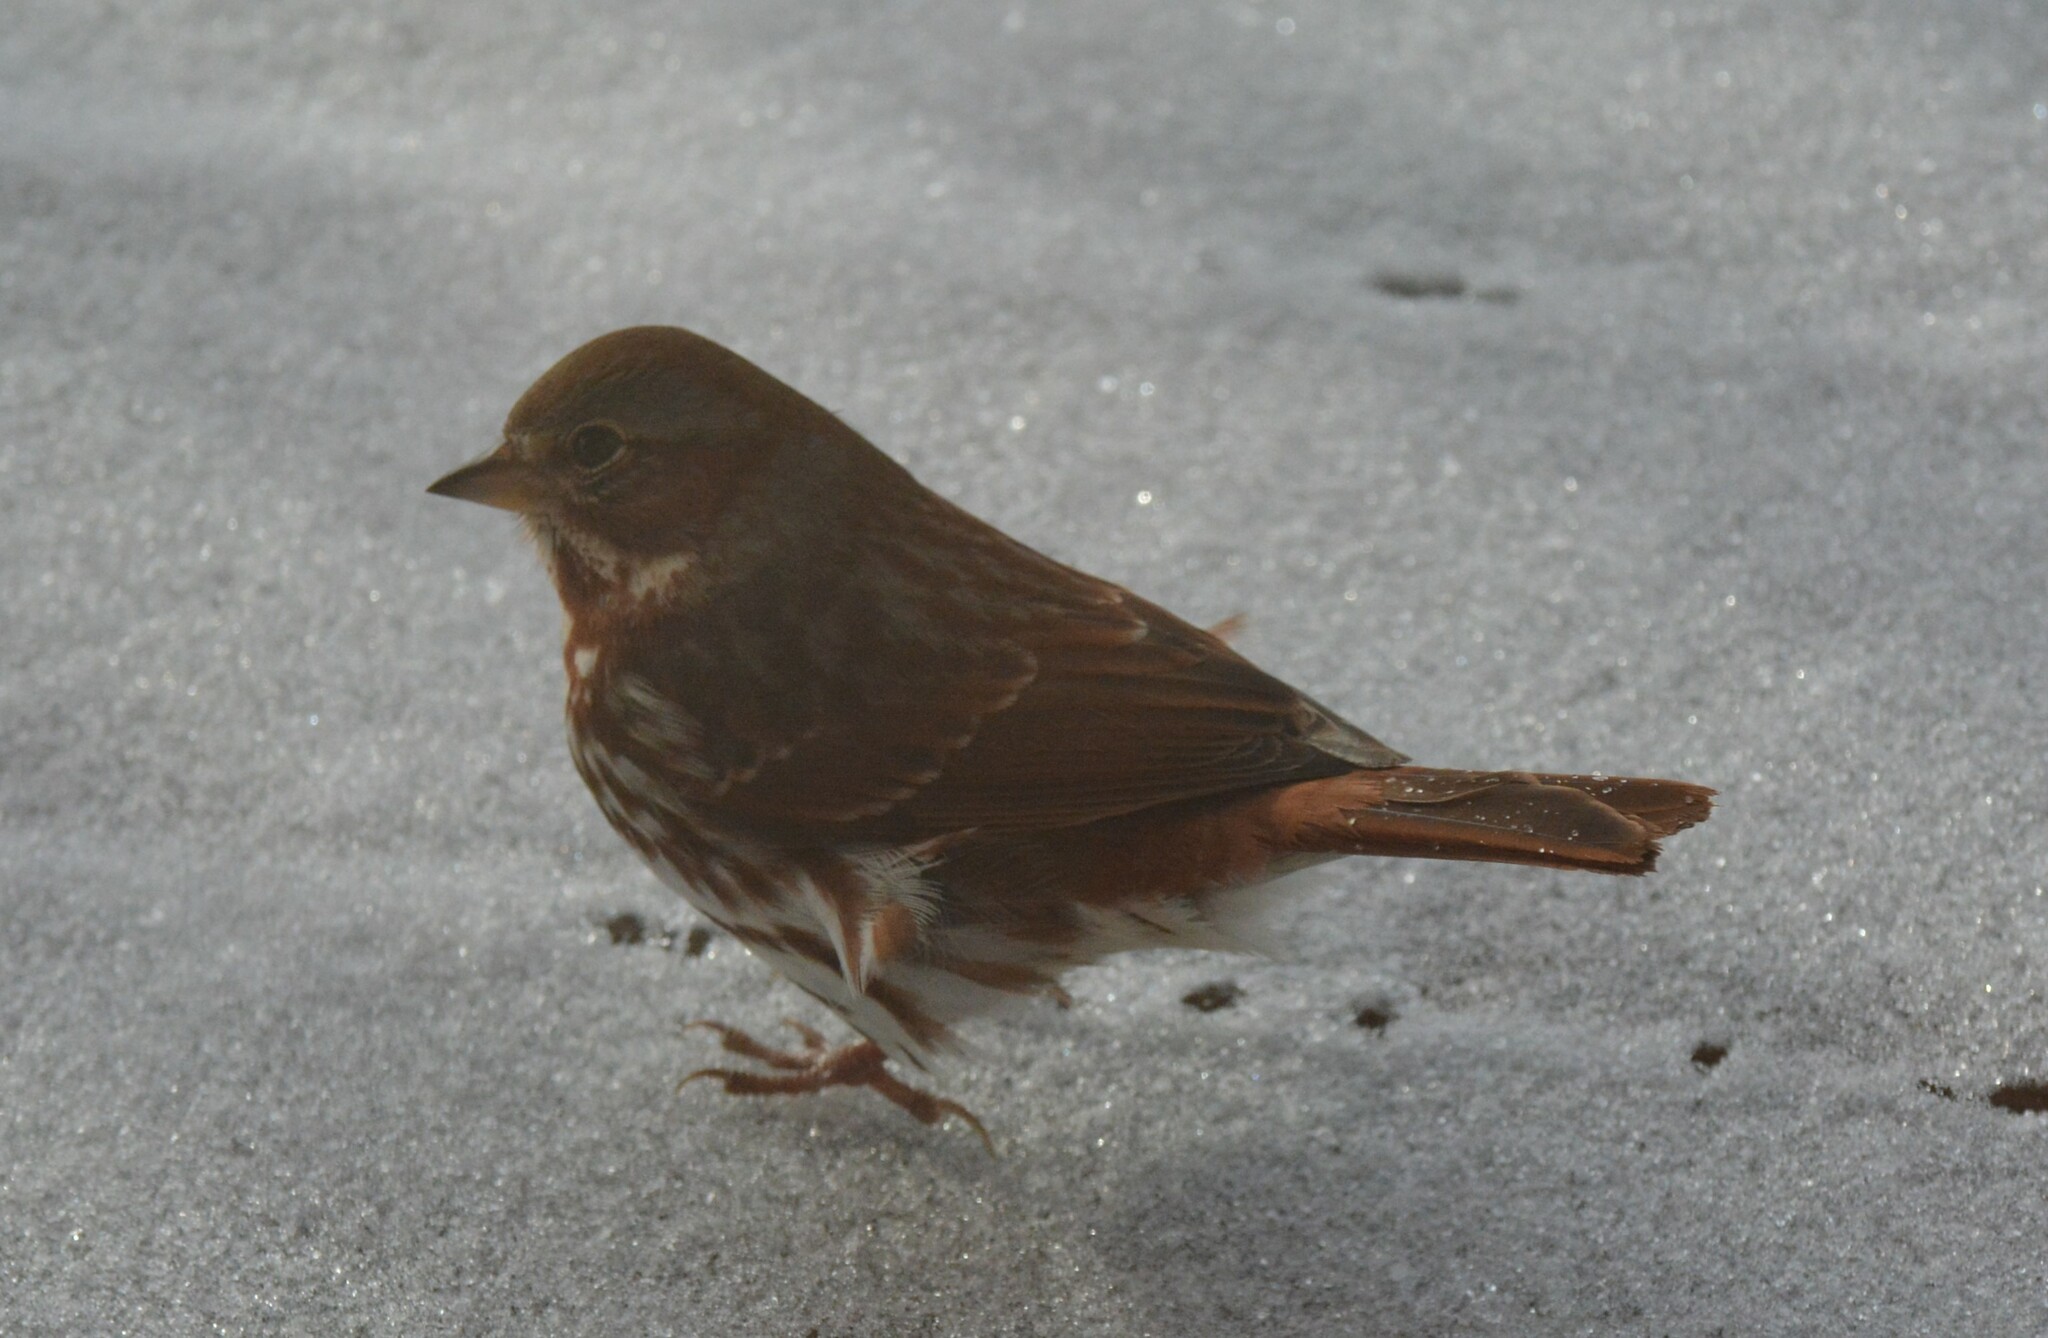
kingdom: Animalia
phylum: Chordata
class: Aves
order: Passeriformes
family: Passerellidae
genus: Passerella
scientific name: Passerella iliaca
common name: Fox sparrow
